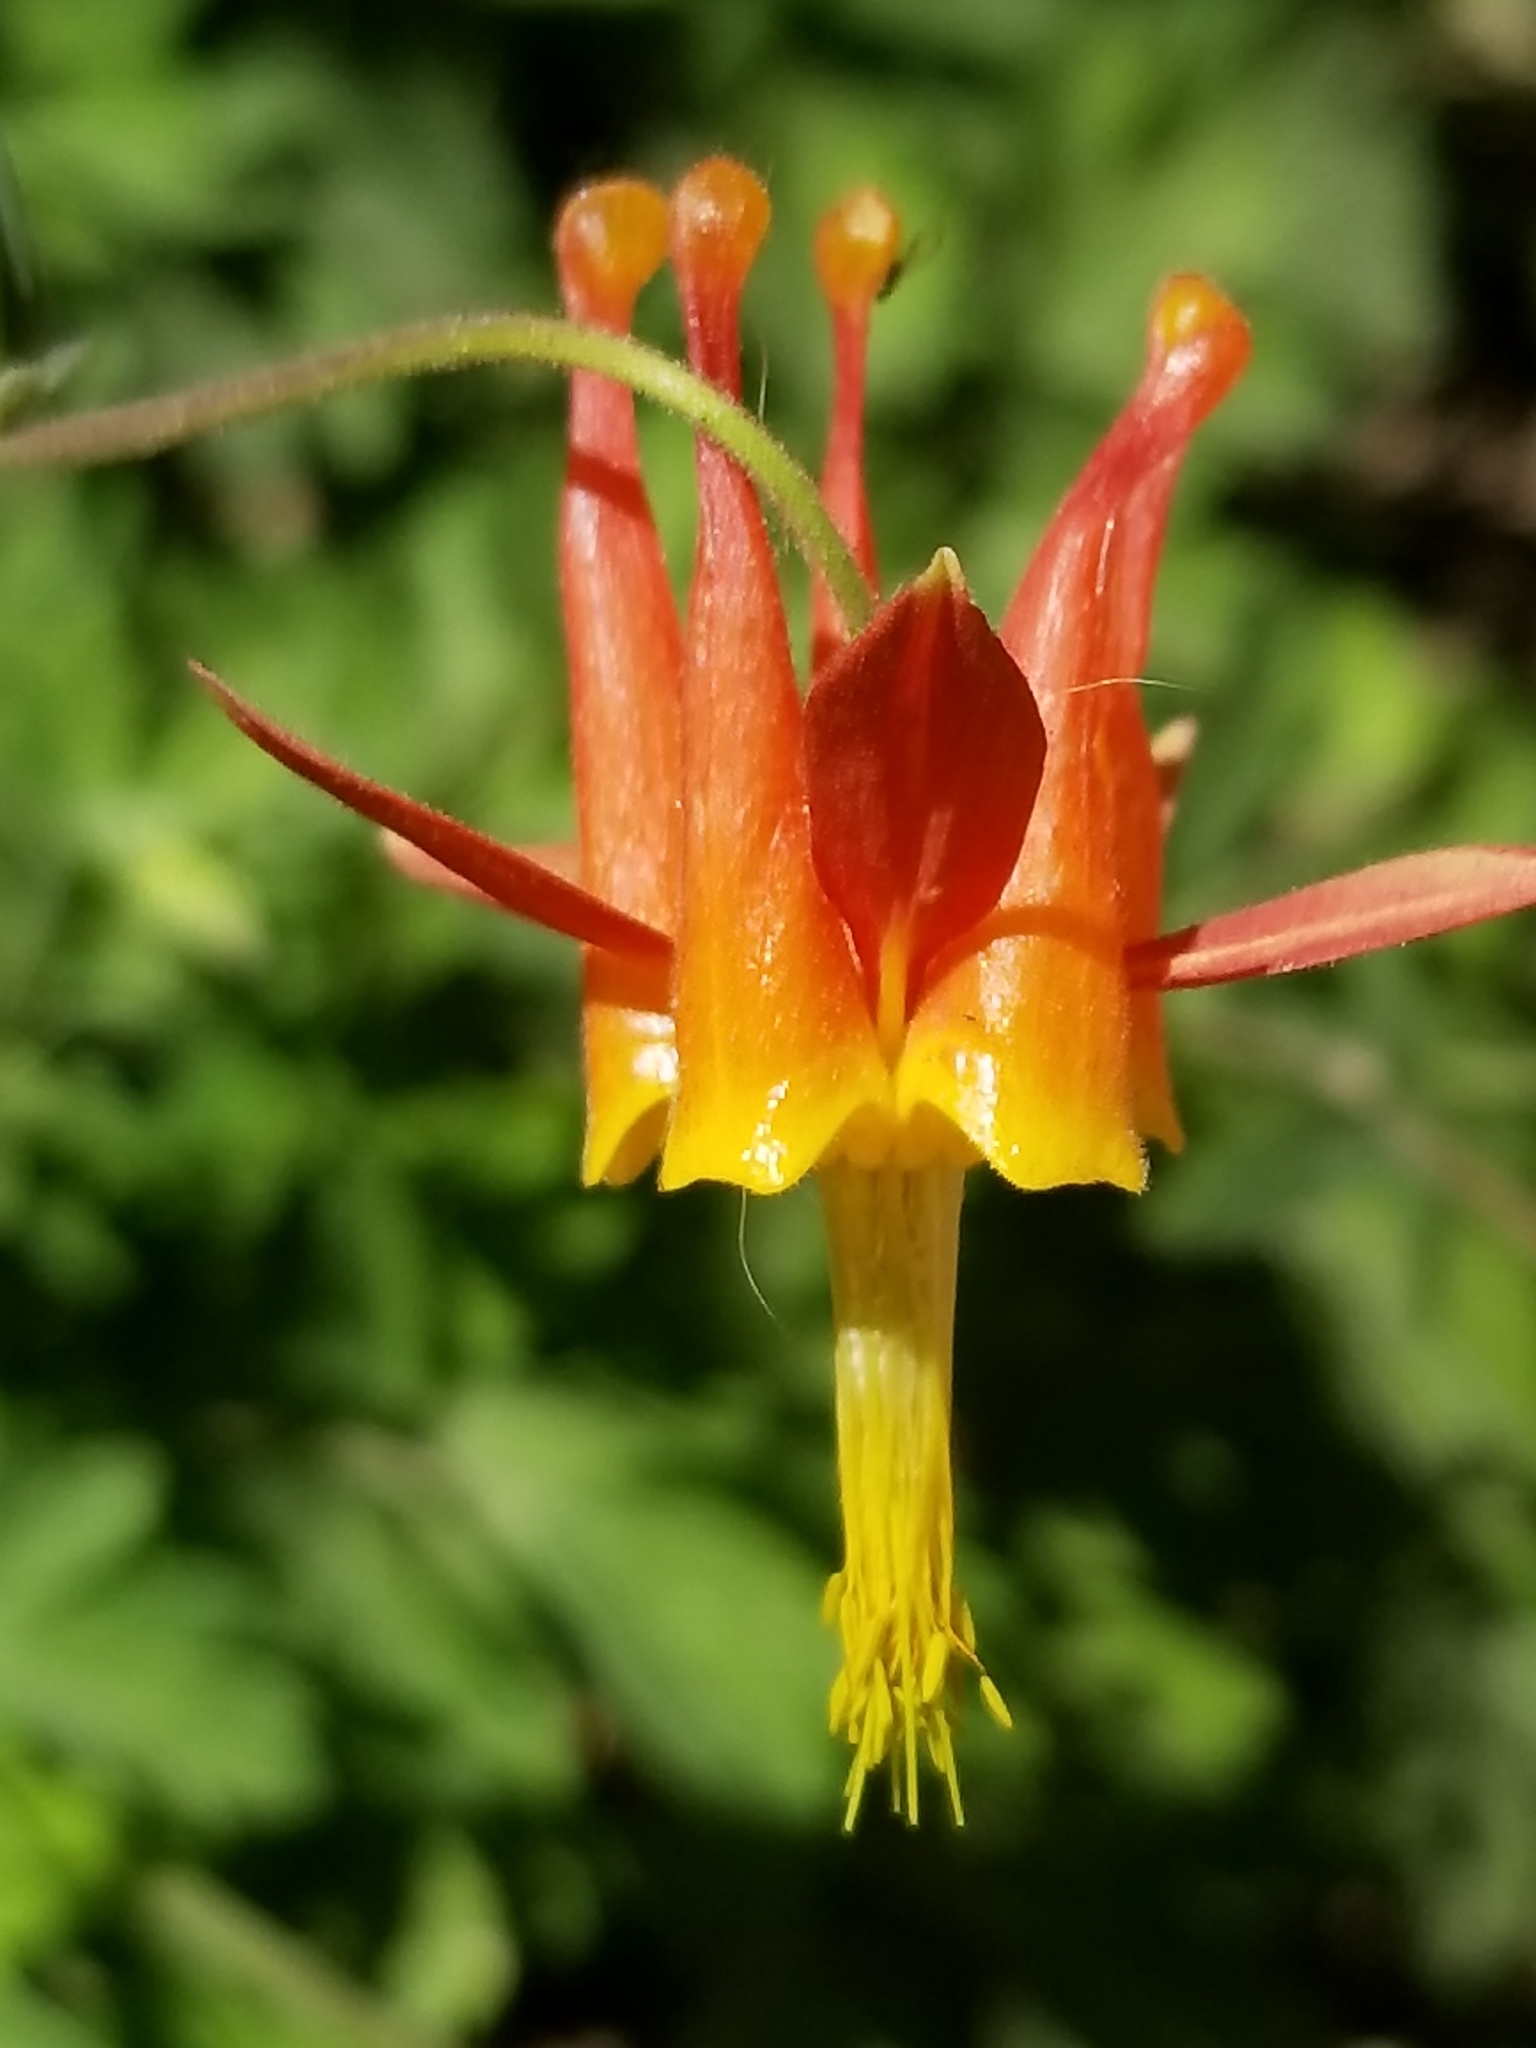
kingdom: Plantae
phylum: Tracheophyta
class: Magnoliopsida
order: Ranunculales
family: Ranunculaceae
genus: Aquilegia
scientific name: Aquilegia formosa
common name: Sitka columbine
